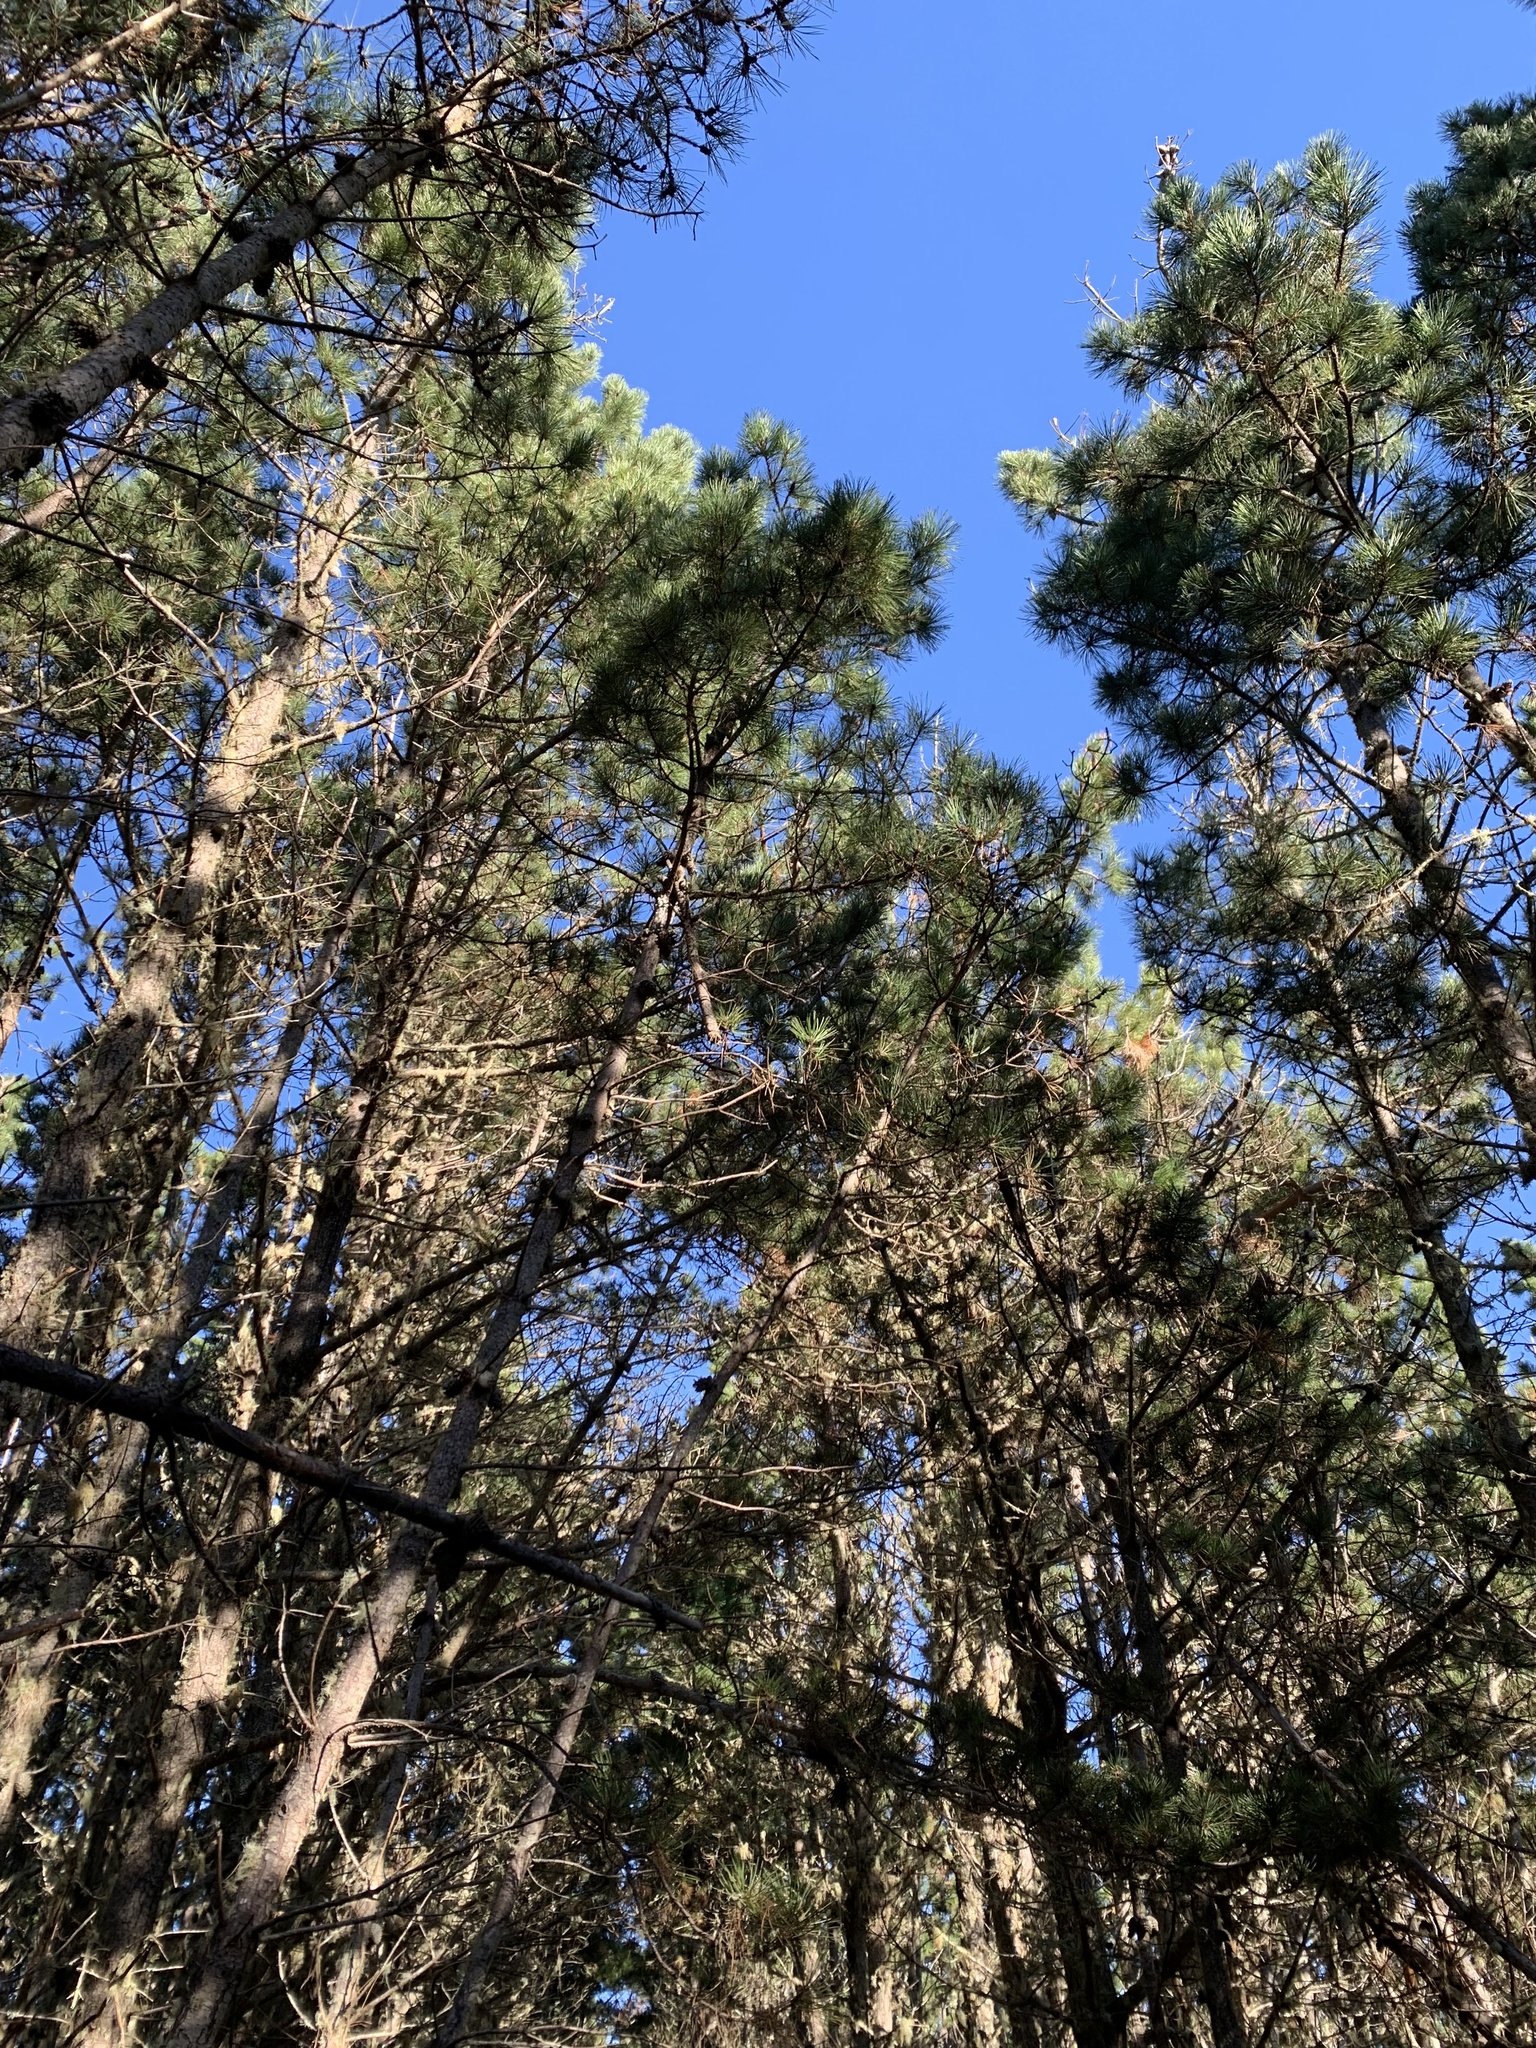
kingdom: Plantae
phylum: Tracheophyta
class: Pinopsida
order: Pinales
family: Pinaceae
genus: Pinus
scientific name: Pinus muricata
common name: Bishop pine
